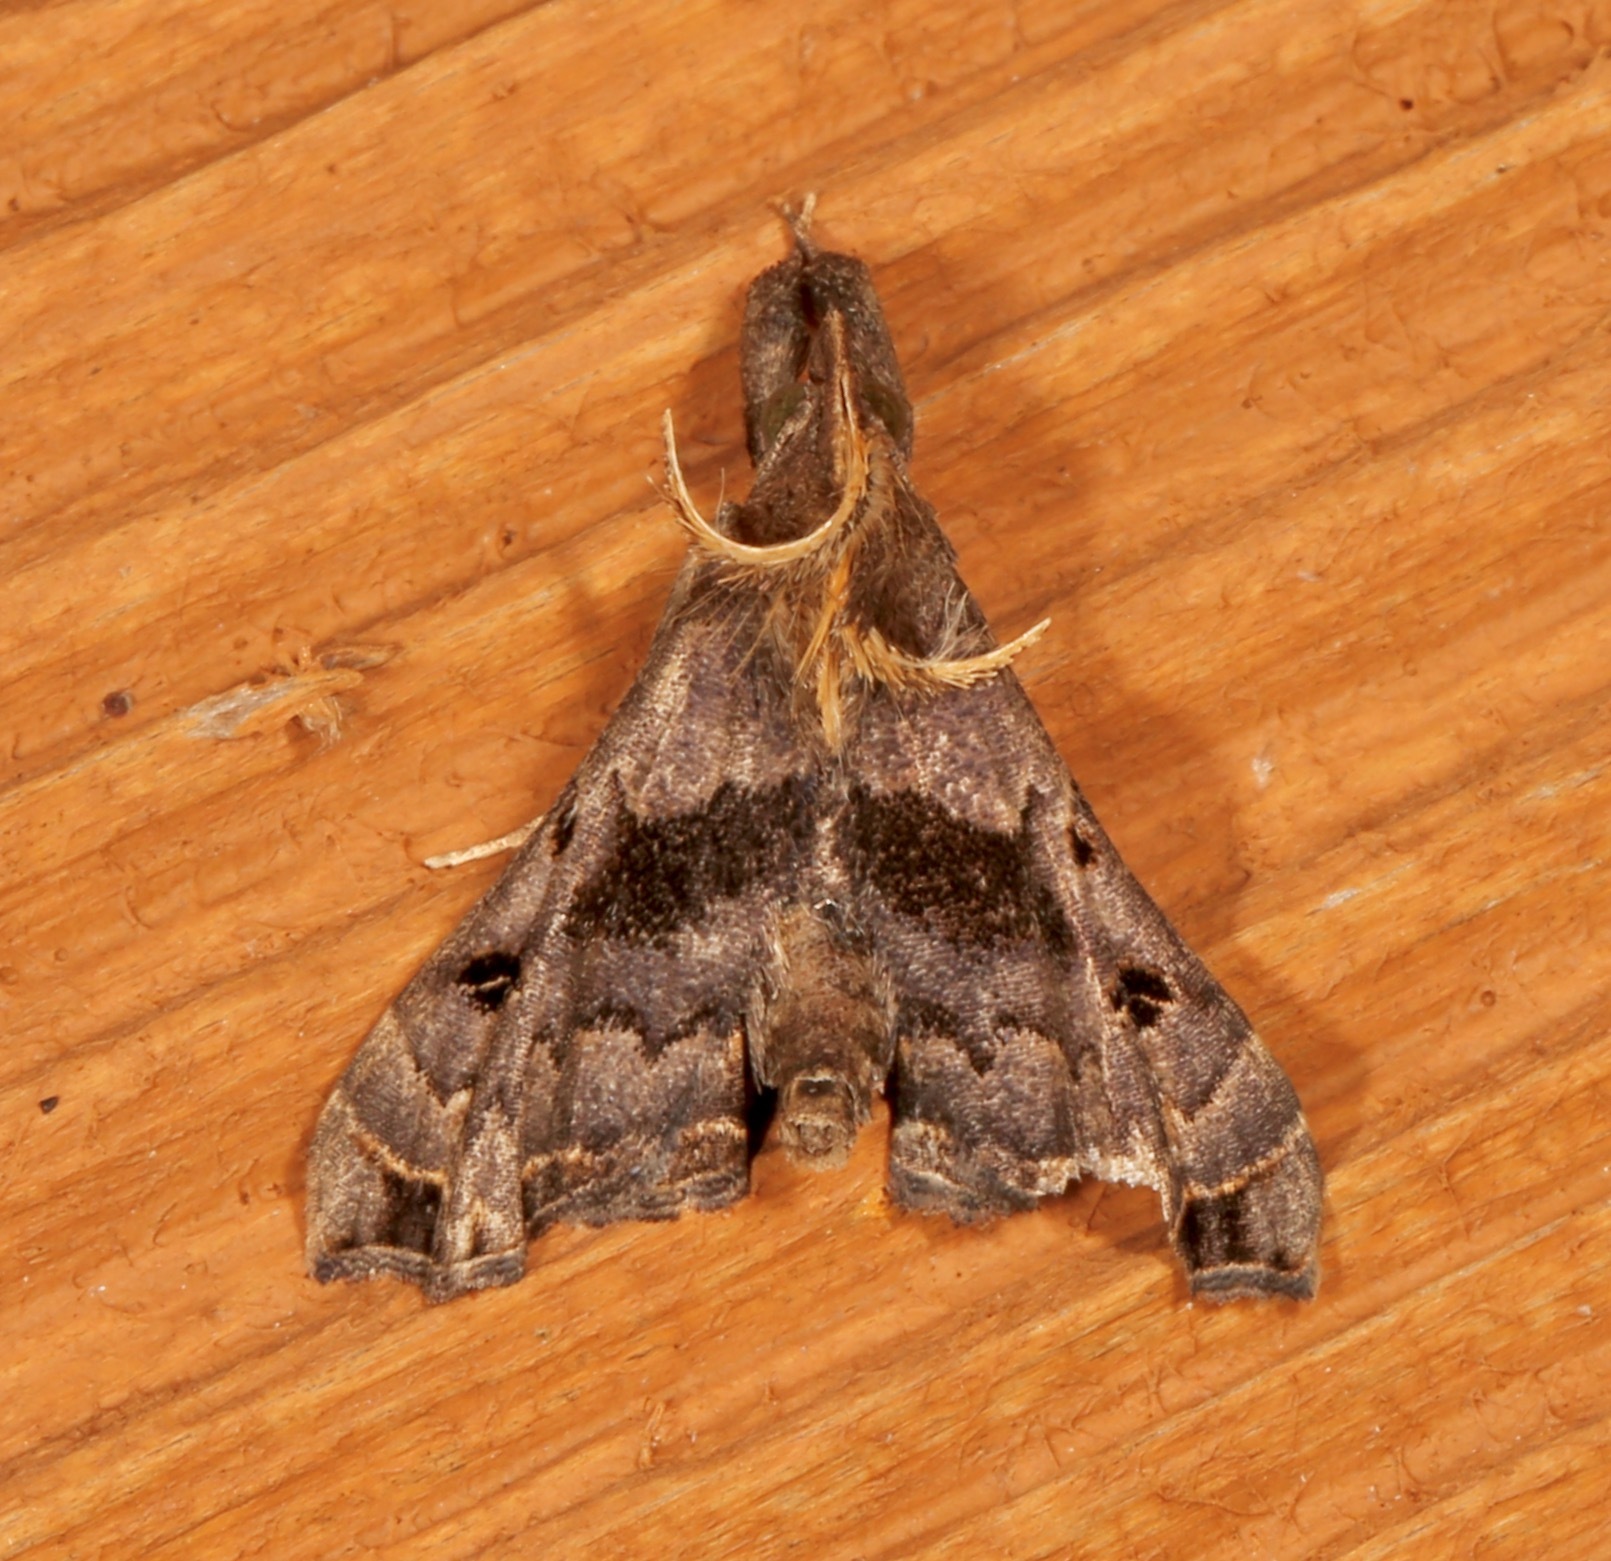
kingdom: Animalia
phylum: Arthropoda
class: Insecta
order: Lepidoptera
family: Erebidae
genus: Palthis
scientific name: Palthis asopialis
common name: Faint-spotted palthis moth
